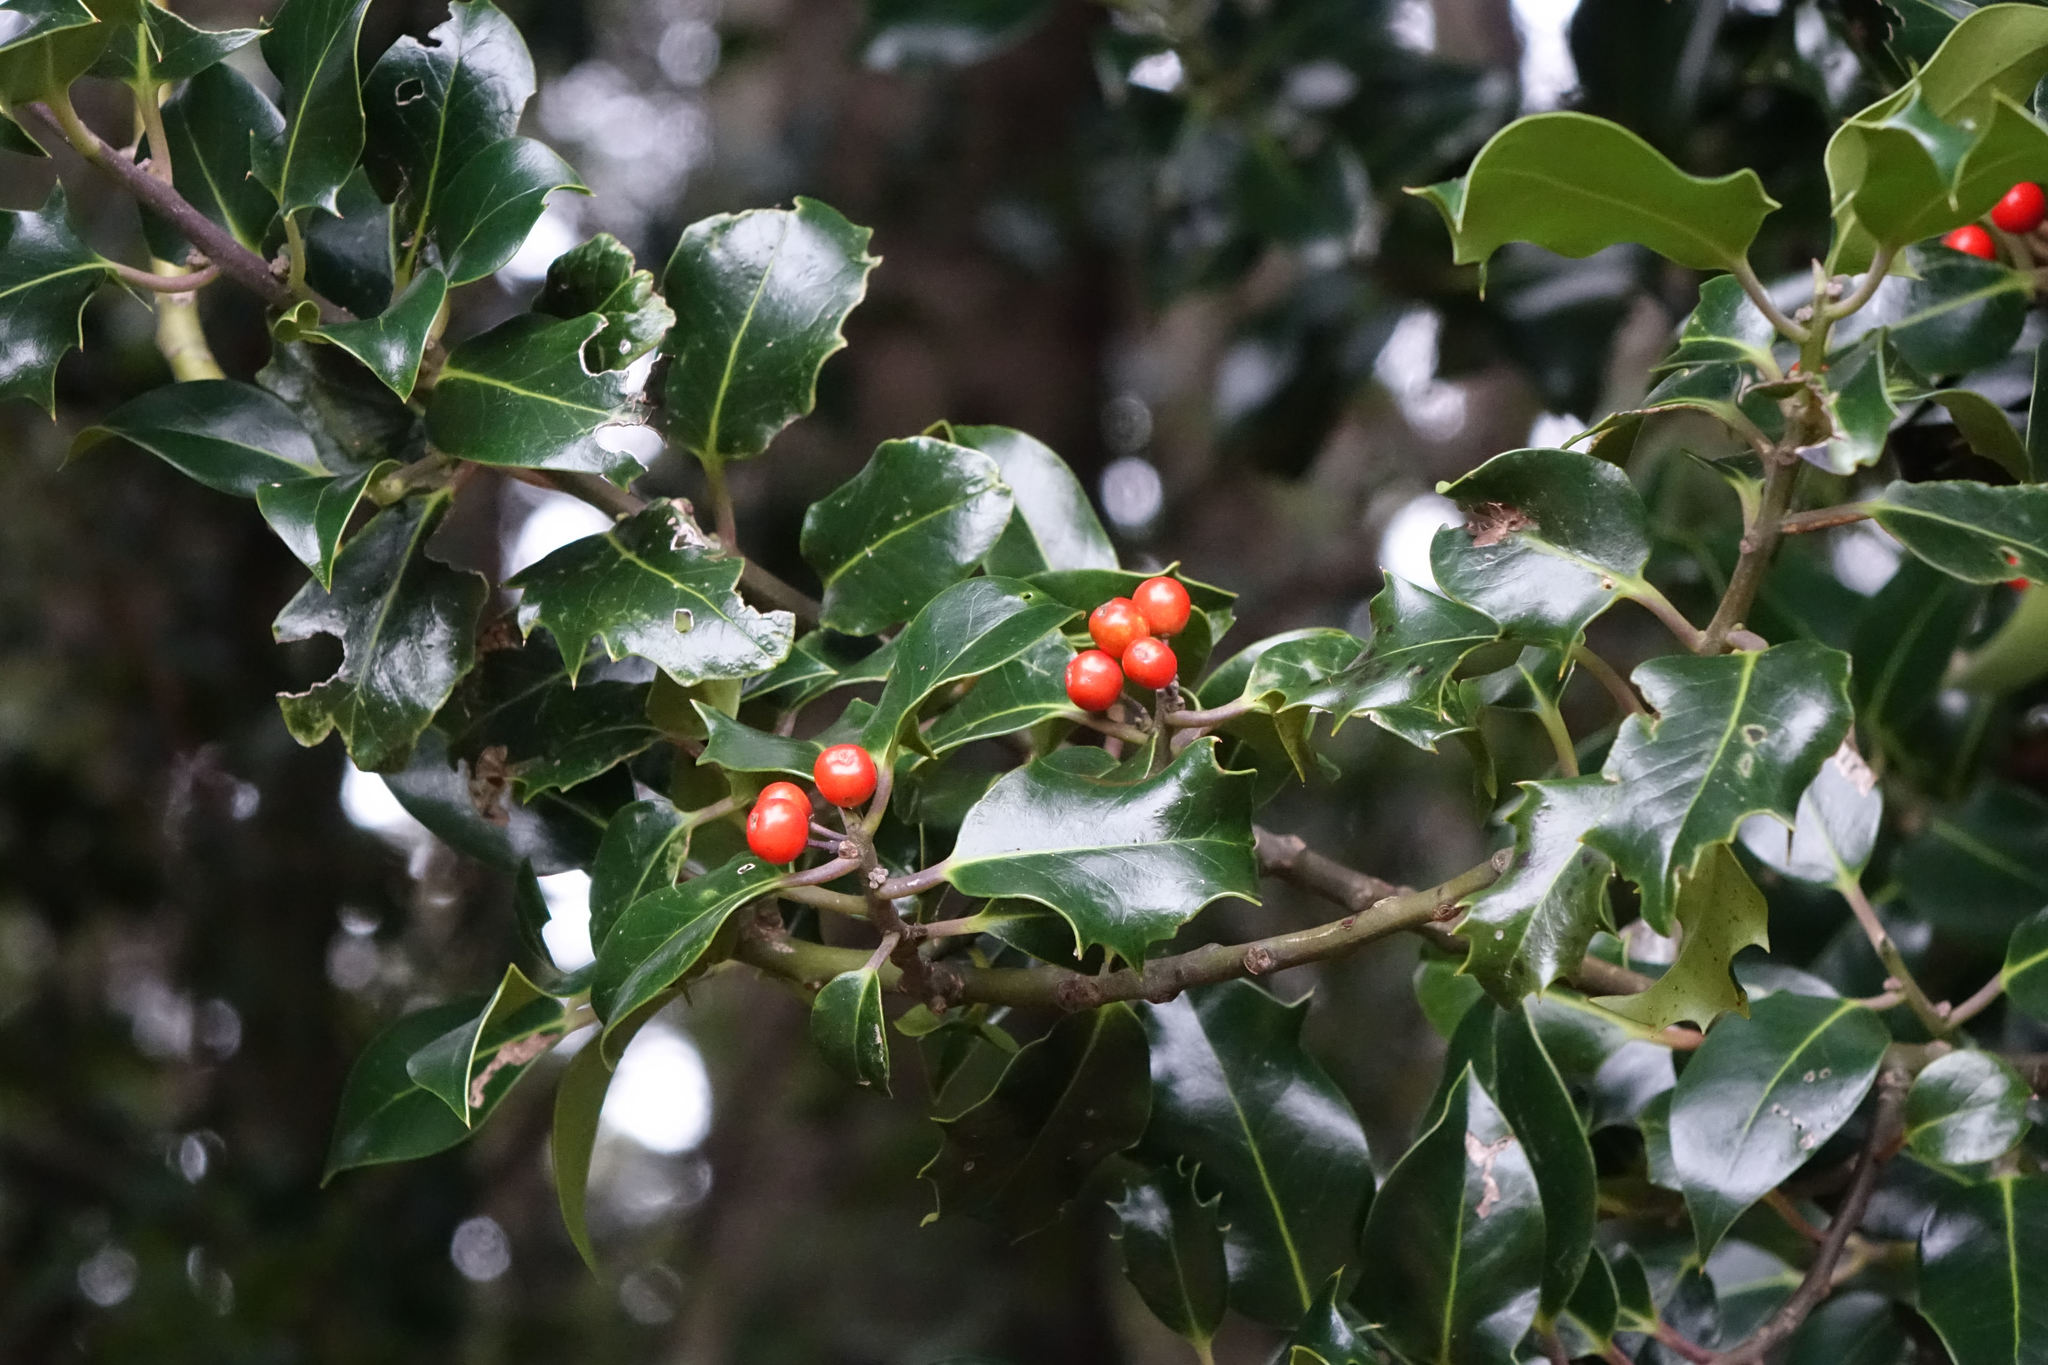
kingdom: Plantae
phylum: Tracheophyta
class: Magnoliopsida
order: Aquifoliales
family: Aquifoliaceae
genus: Ilex
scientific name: Ilex aquifolium
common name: English holly
